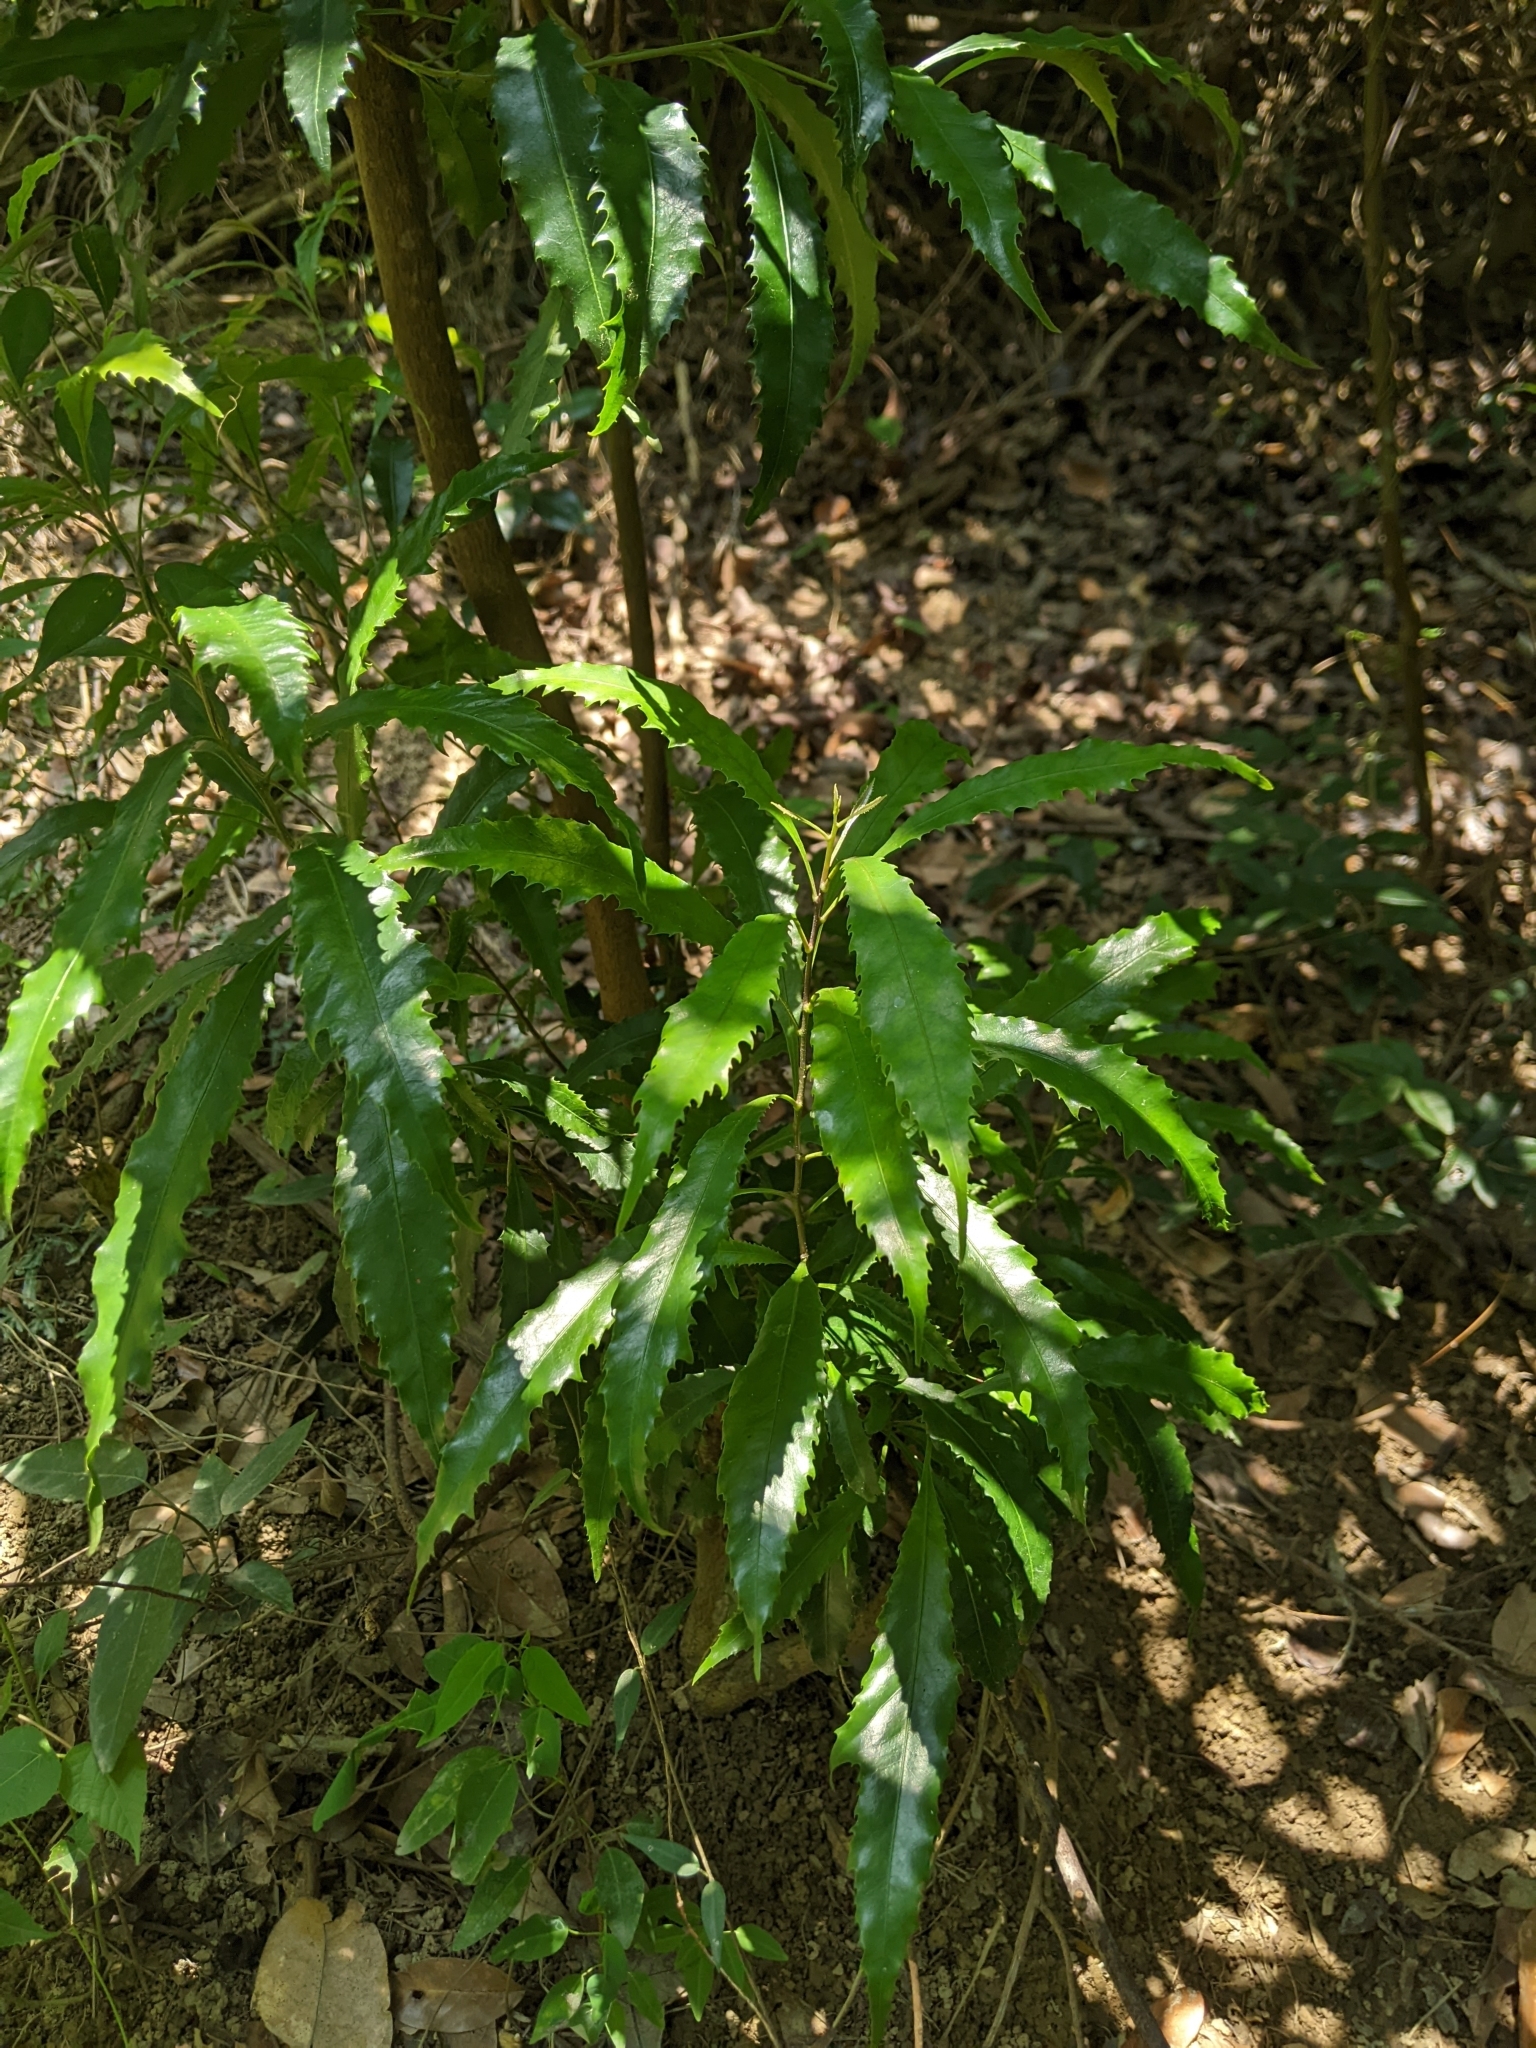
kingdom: Plantae
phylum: Tracheophyta
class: Magnoliopsida
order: Proteales
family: Proteaceae
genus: Helicia
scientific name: Helicia cochinchinensis
